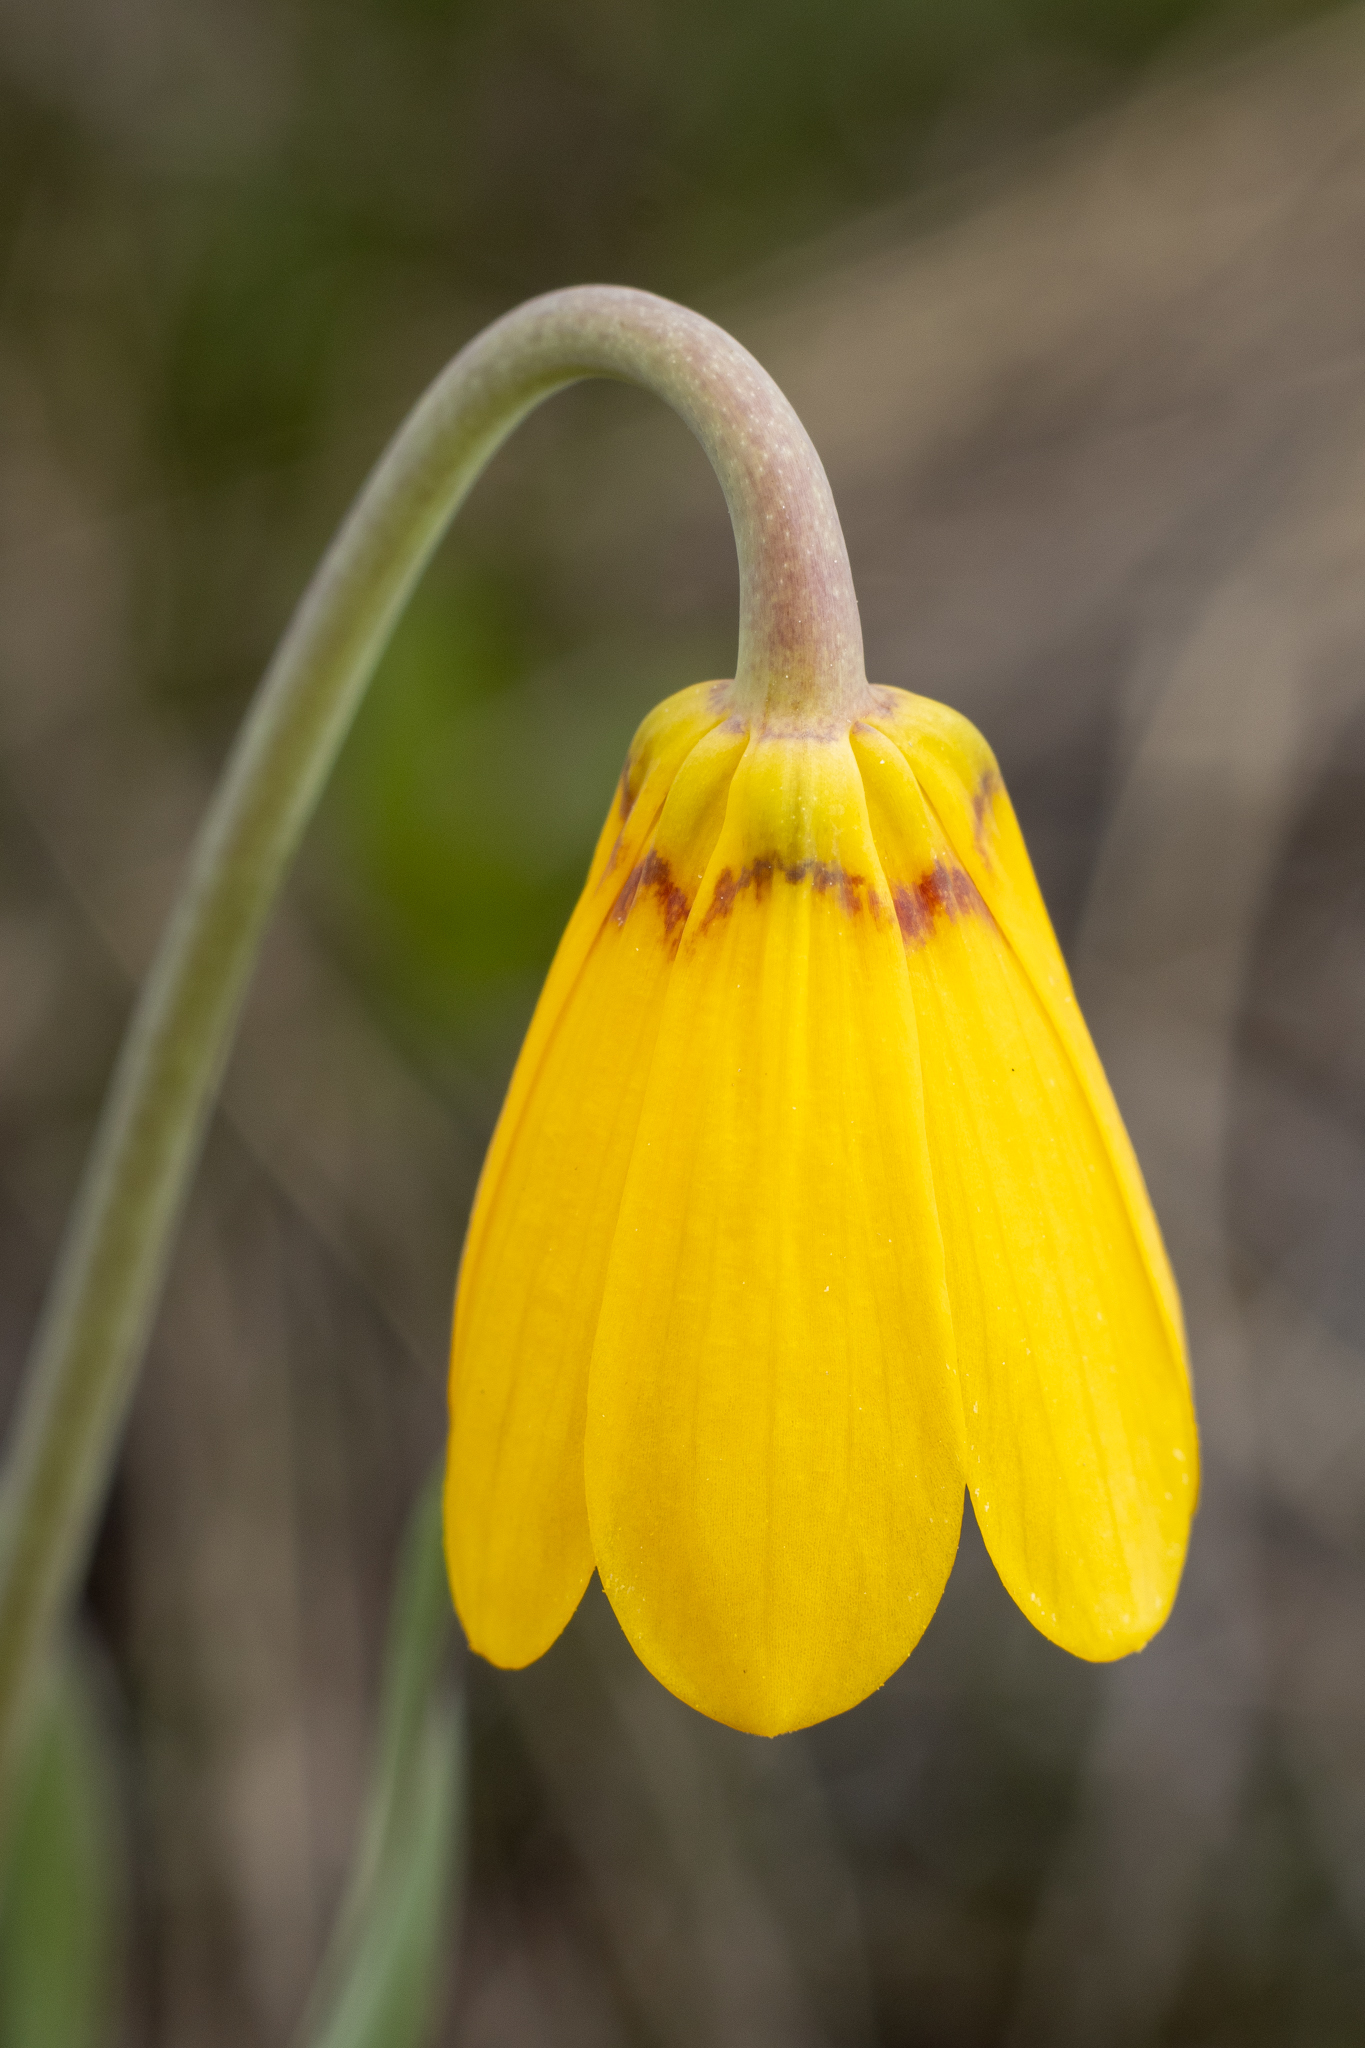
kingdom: Plantae
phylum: Tracheophyta
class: Liliopsida
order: Liliales
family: Liliaceae
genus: Fritillaria
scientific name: Fritillaria pudica
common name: Yellow fritillary
